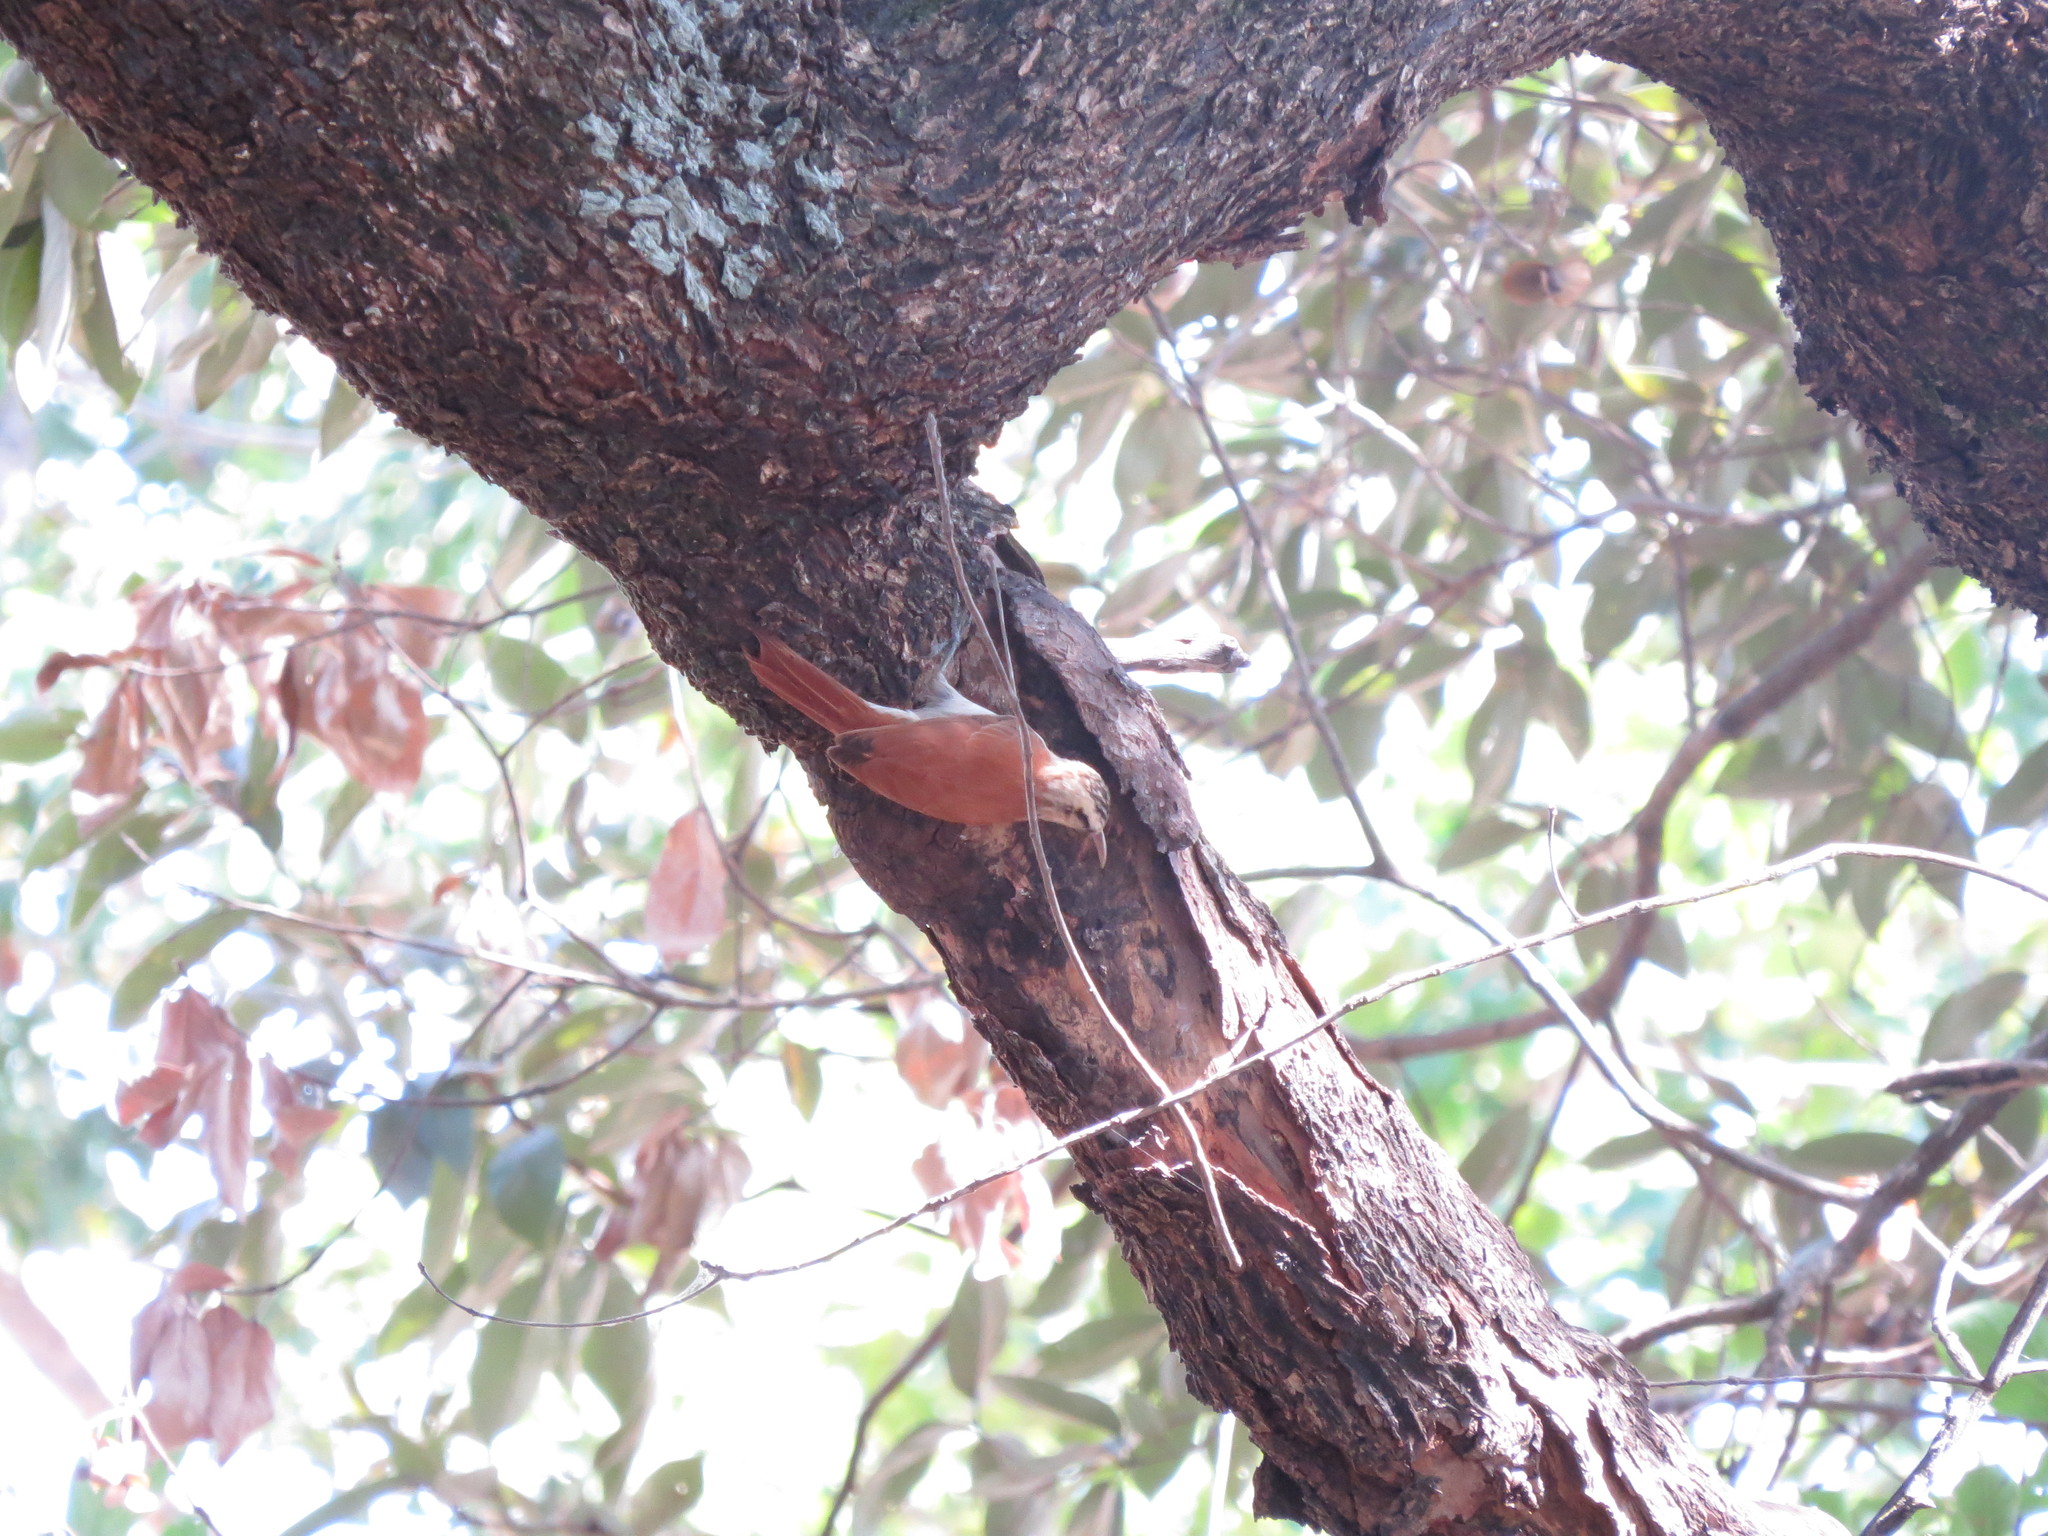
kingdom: Animalia
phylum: Chordata
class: Aves
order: Passeriformes
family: Furnariidae
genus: Lepidocolaptes
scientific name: Lepidocolaptes angustirostris
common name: Narrow-billed woodcreeper
